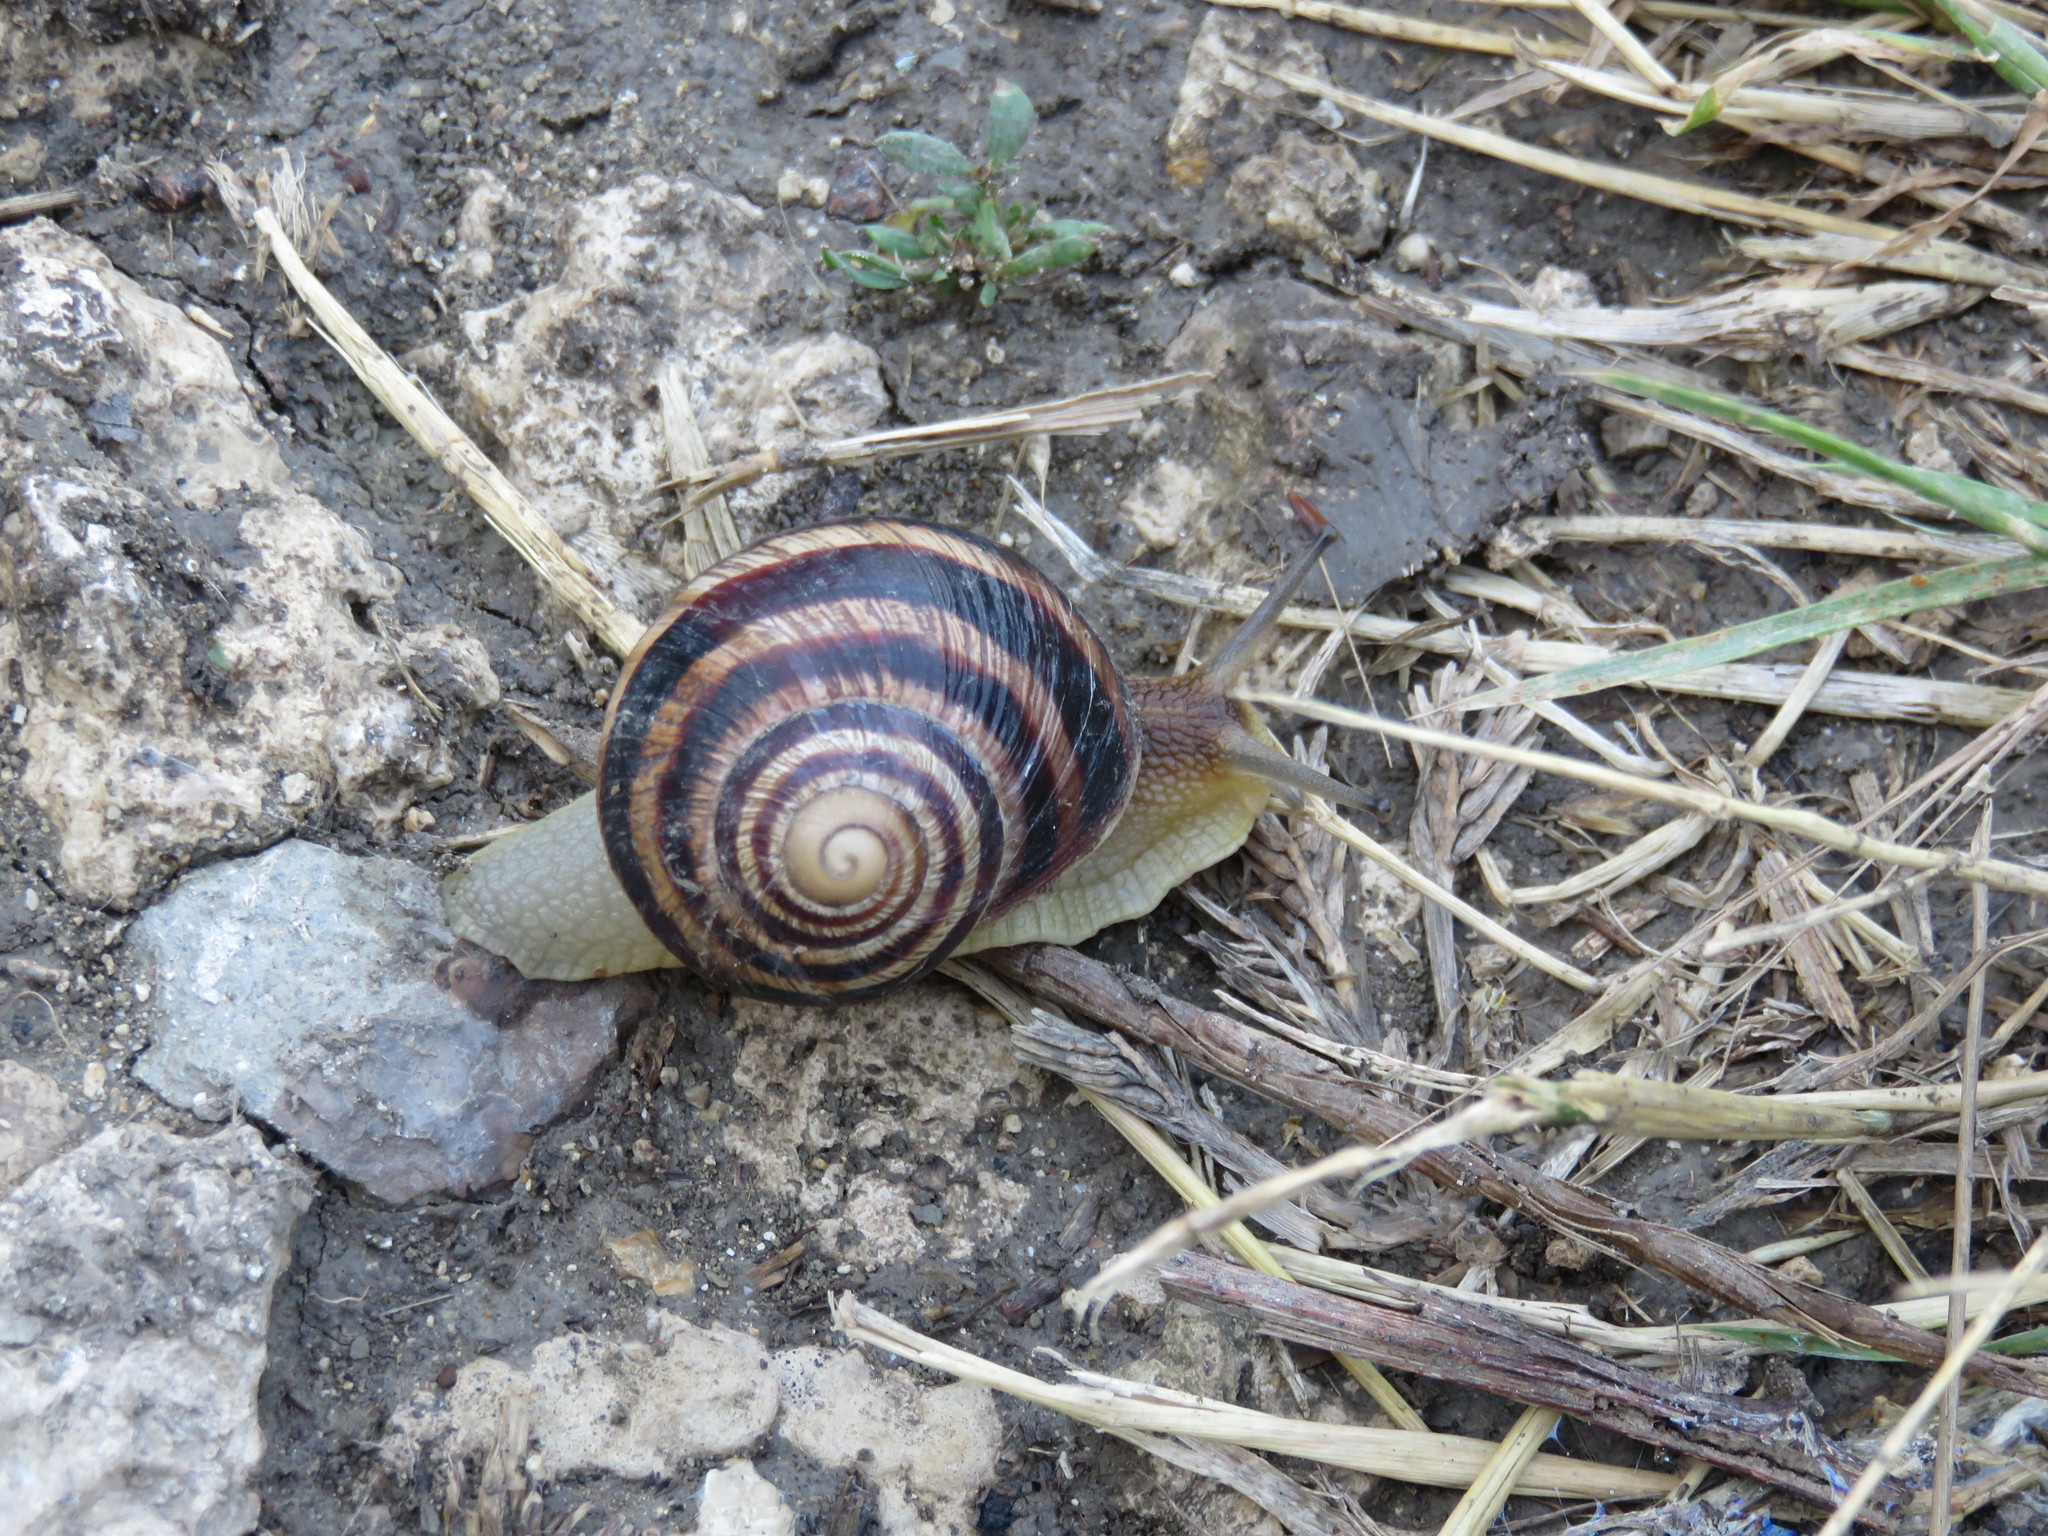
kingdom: Animalia
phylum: Mollusca
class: Gastropoda
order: Stylommatophora
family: Helicidae
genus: Helix
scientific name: Helix albescens
